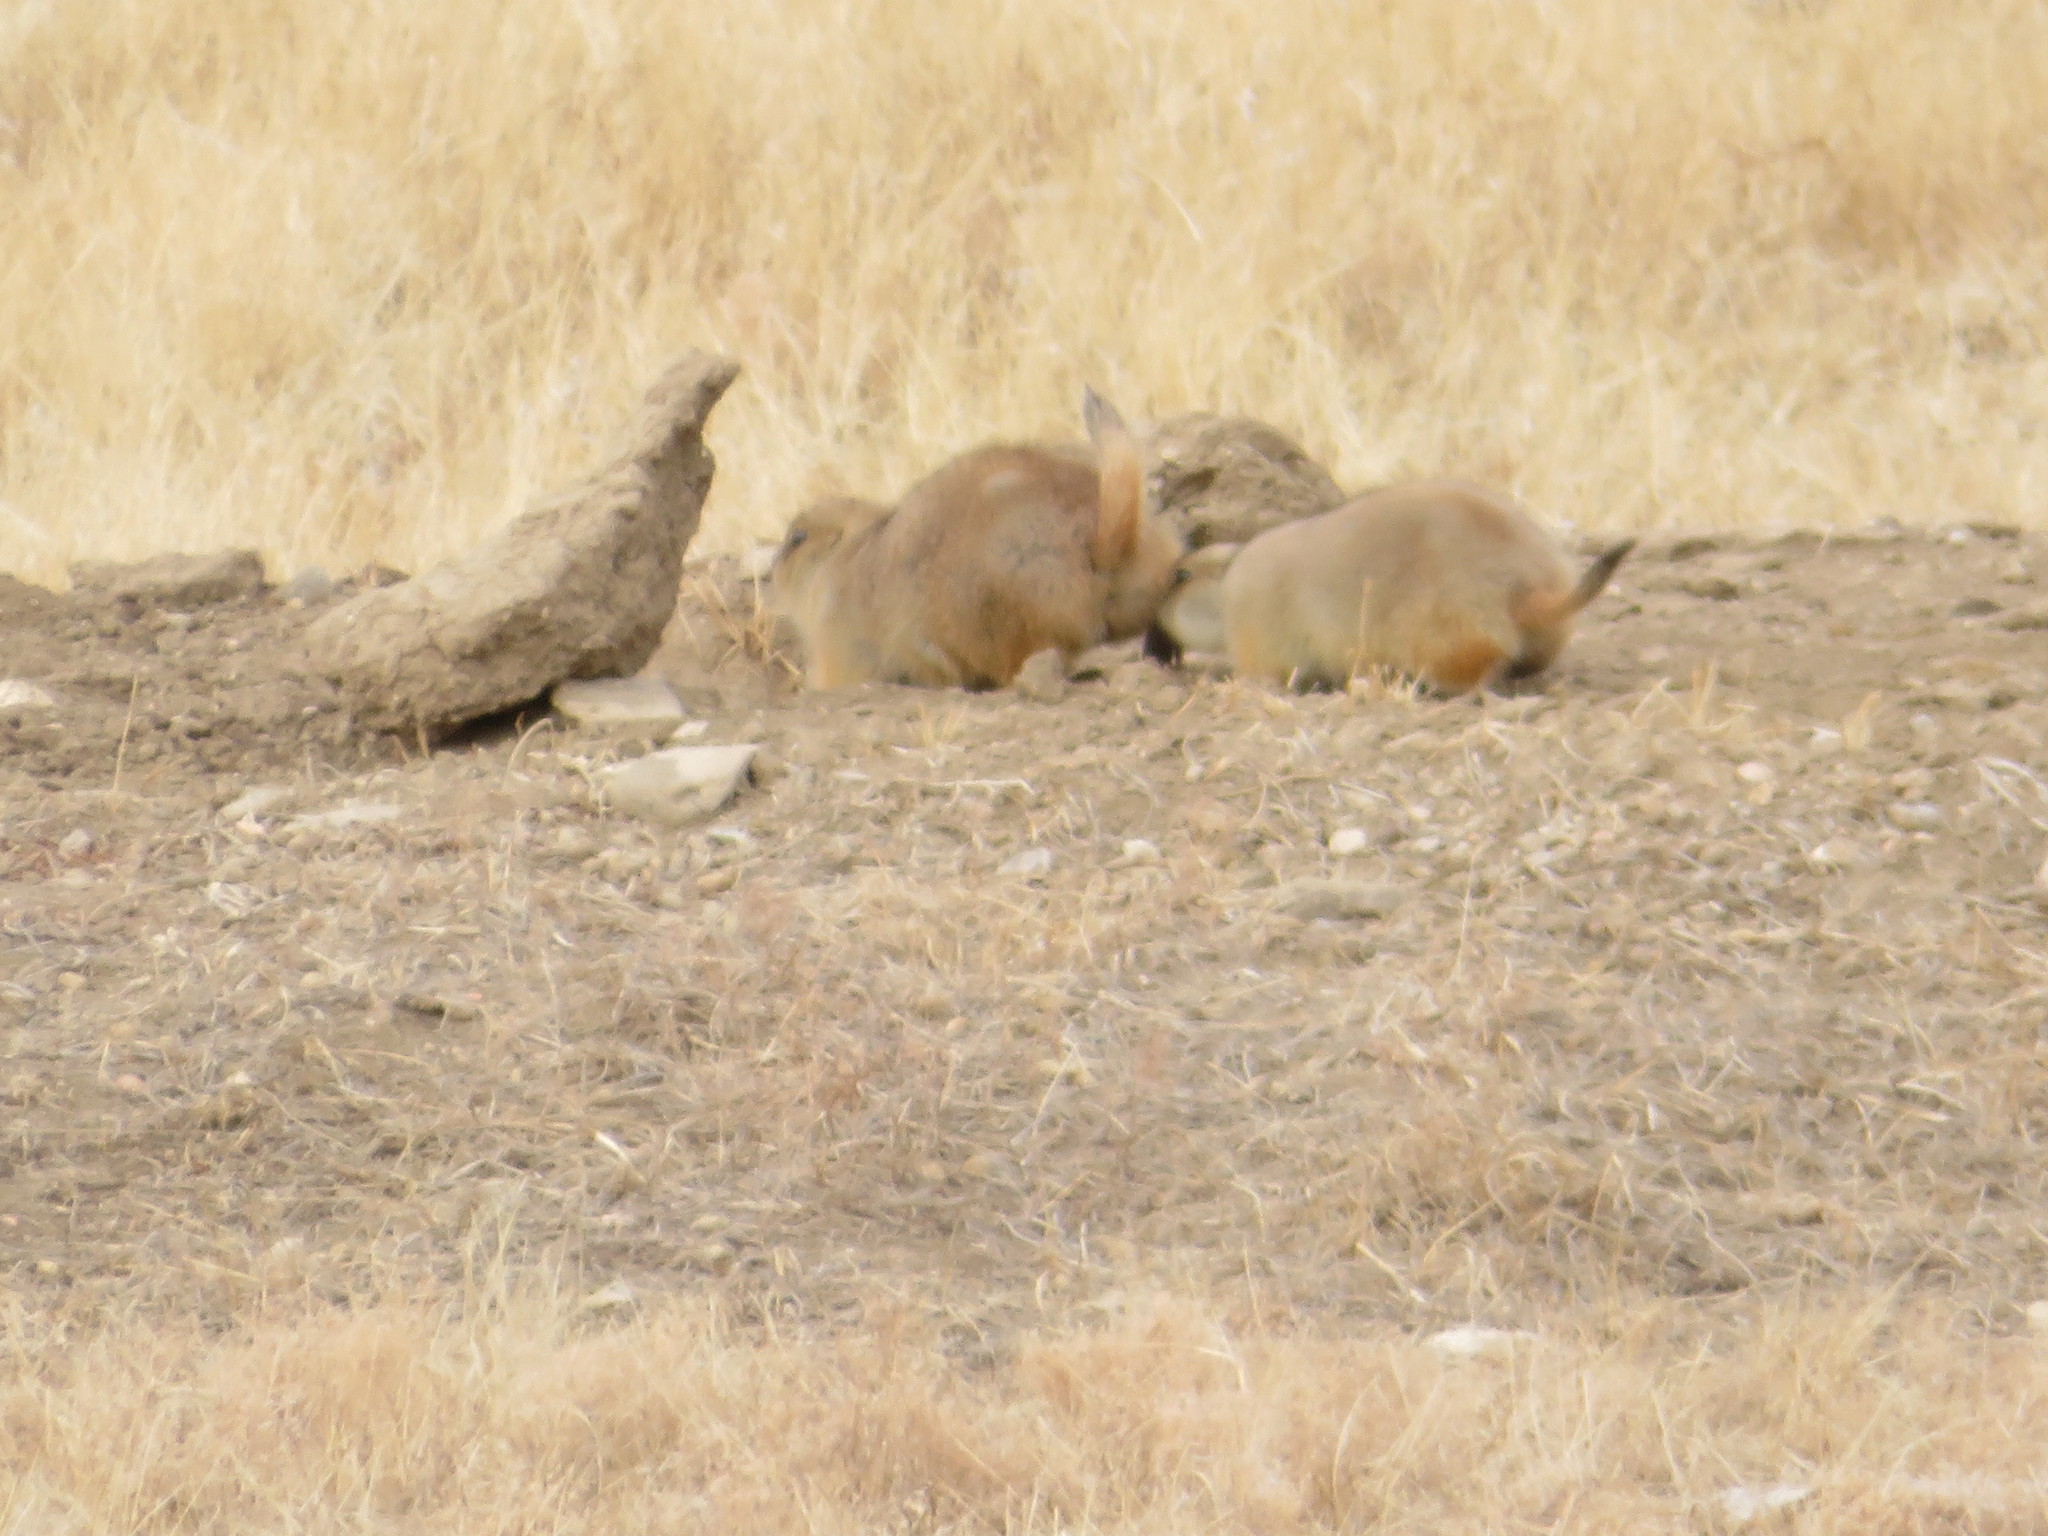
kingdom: Animalia
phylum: Chordata
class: Mammalia
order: Rodentia
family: Sciuridae
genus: Cynomys
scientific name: Cynomys ludovicianus
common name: Black-tailed prairie dog
